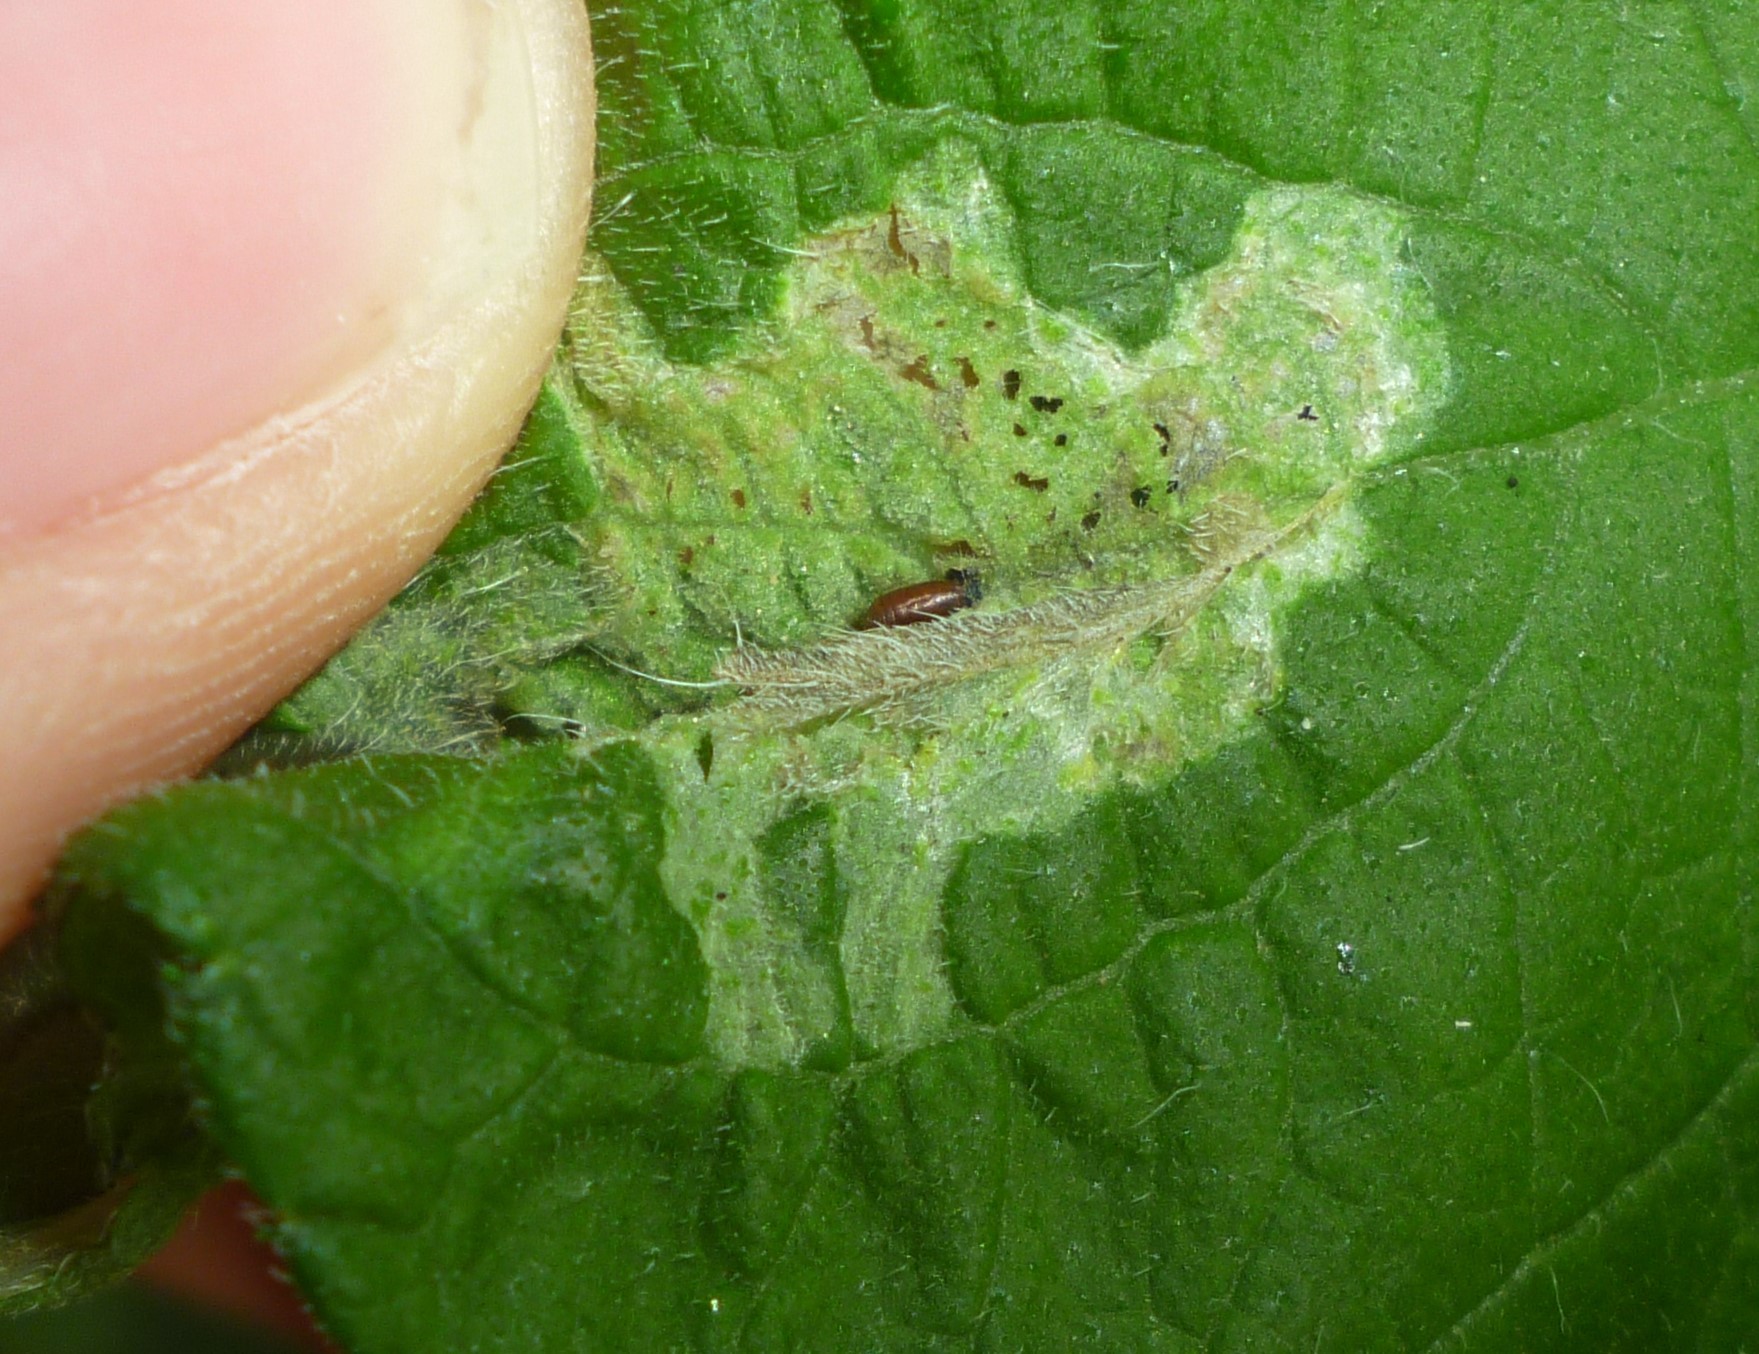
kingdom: Animalia
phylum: Arthropoda
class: Insecta
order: Diptera
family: Agromyzidae
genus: Calycomyza
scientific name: Calycomyza platyptera
